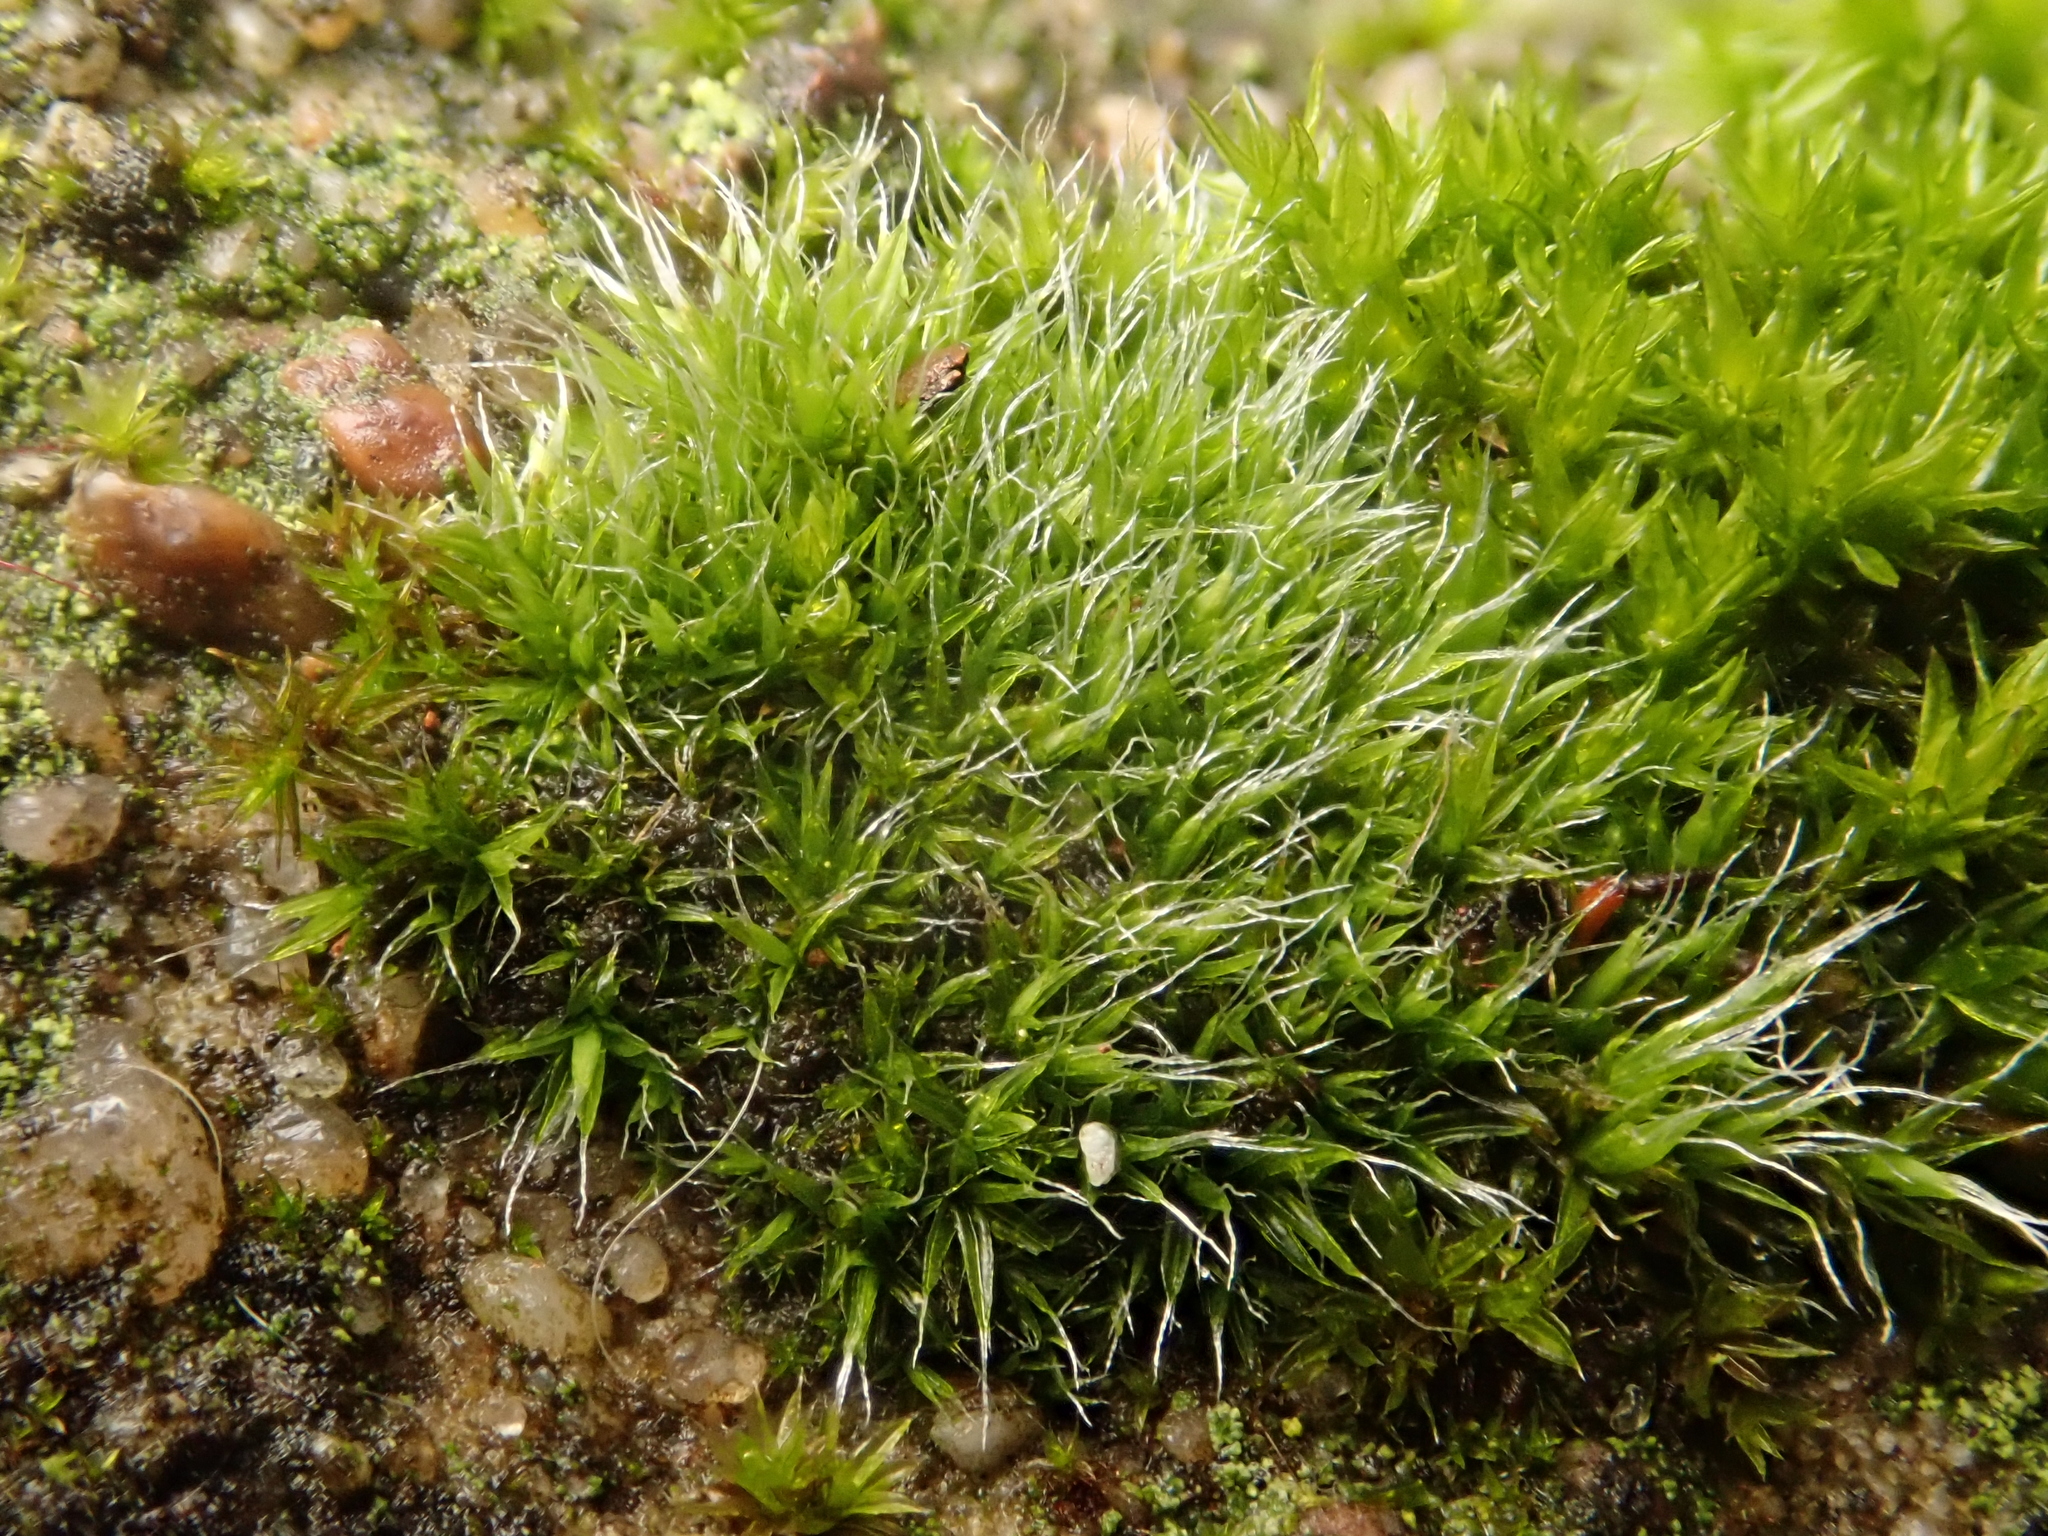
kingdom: Plantae
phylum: Bryophyta
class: Bryopsida
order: Grimmiales
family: Grimmiaceae
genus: Grimmia
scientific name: Grimmia pulvinata
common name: Grey-cushioned grimmia
